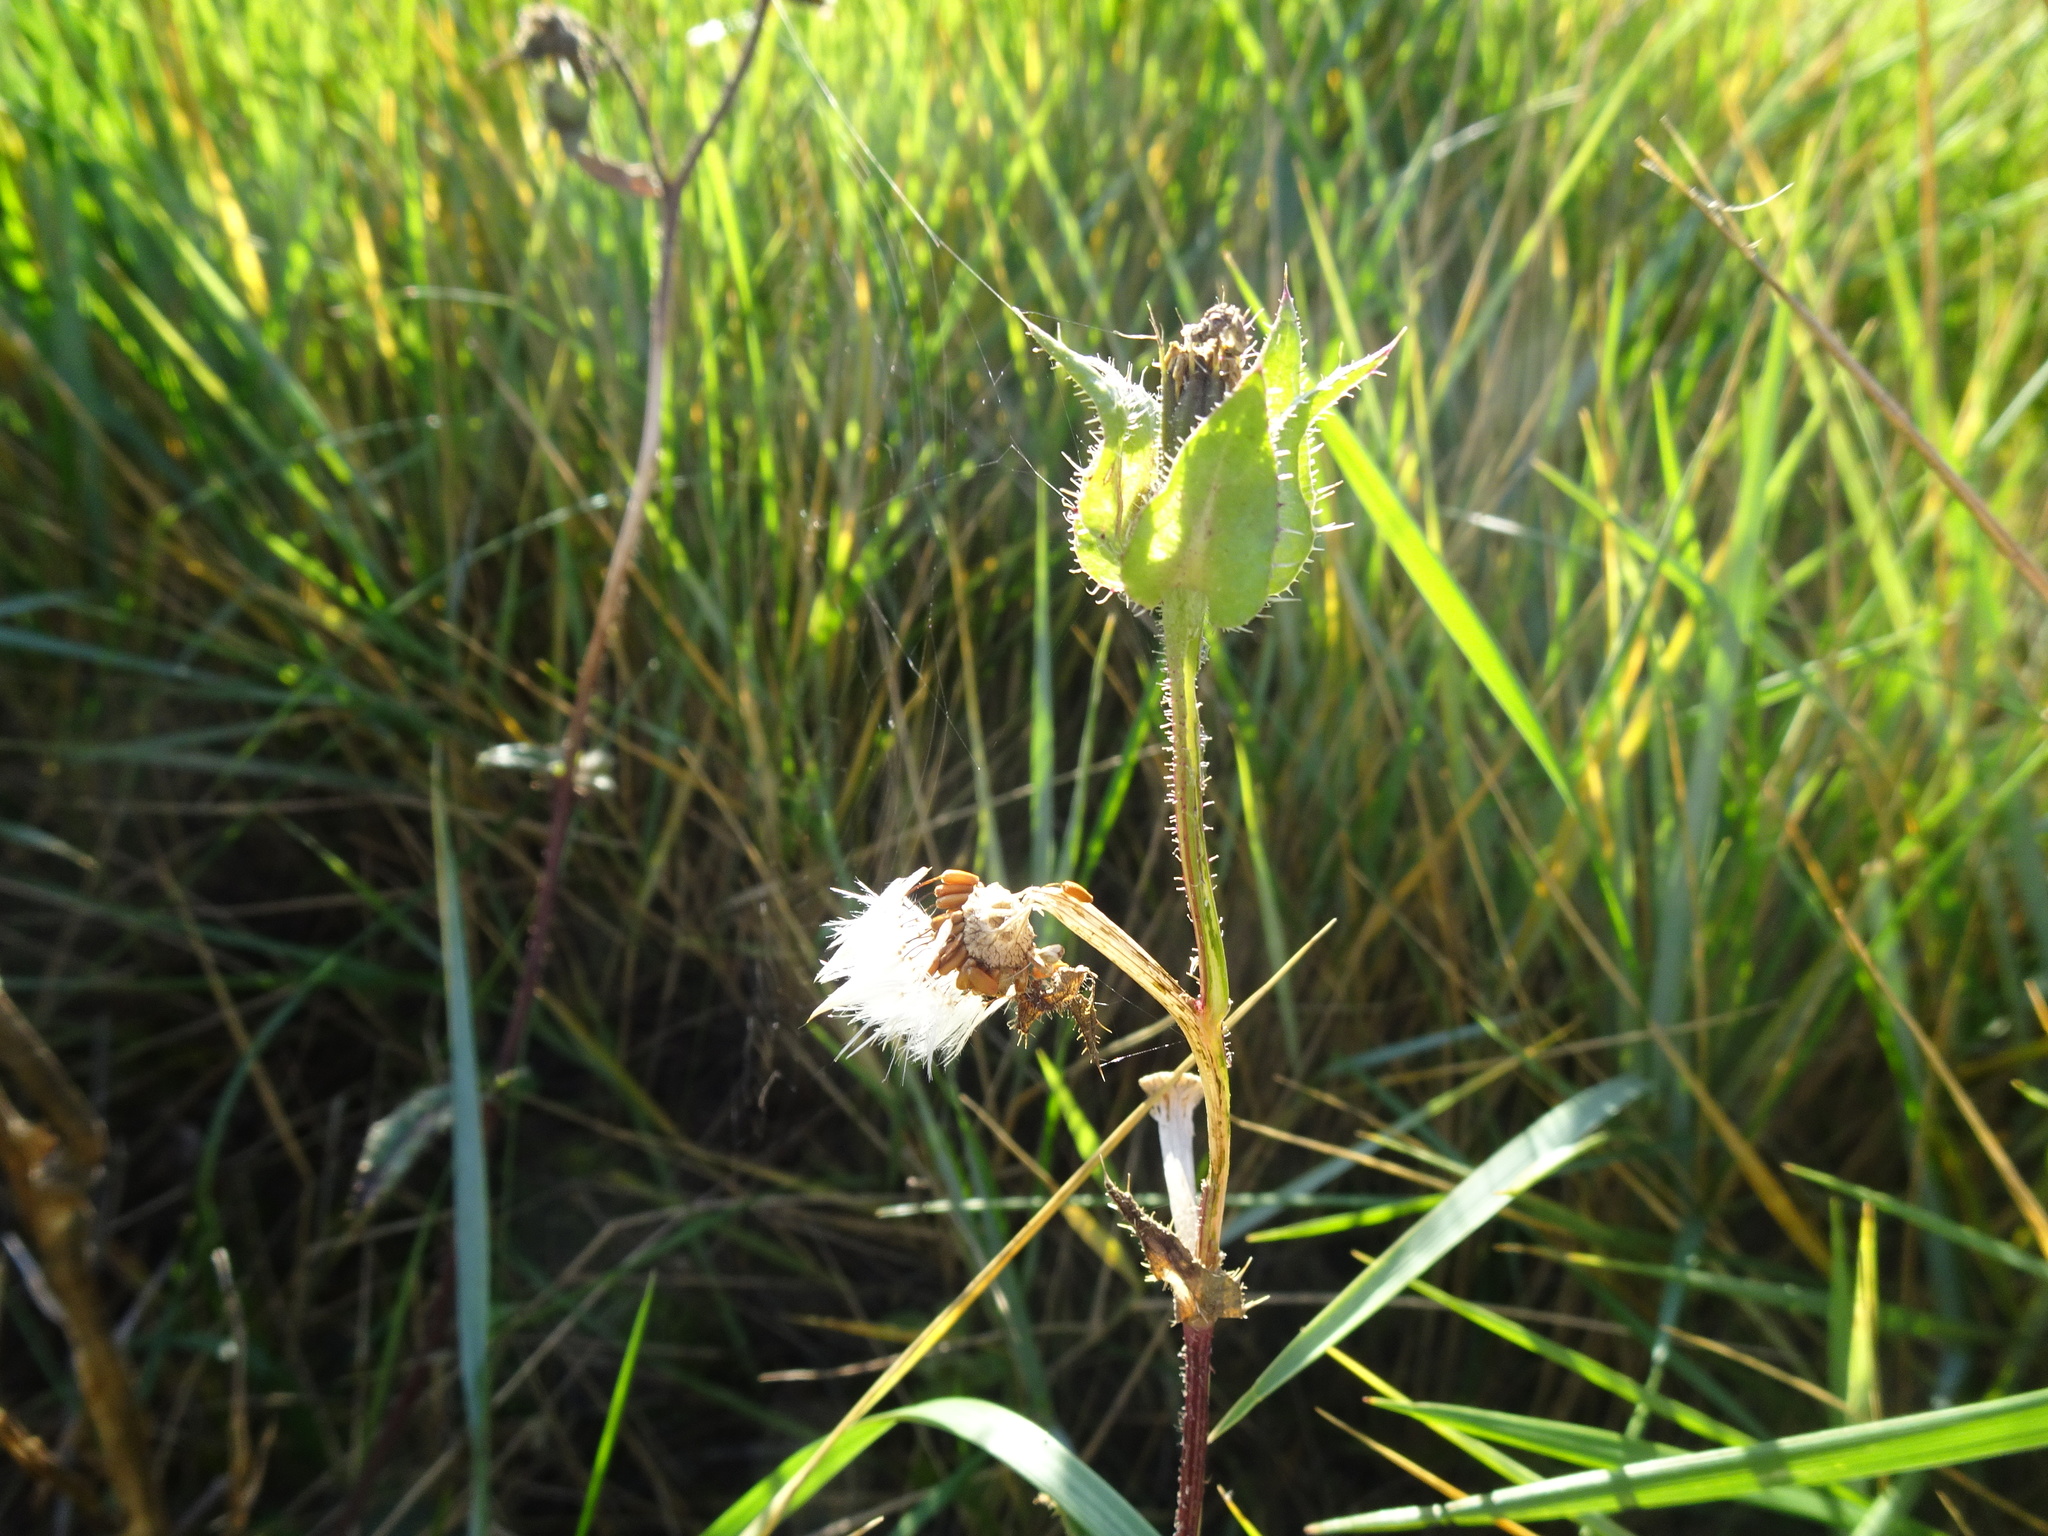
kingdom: Plantae
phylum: Tracheophyta
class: Magnoliopsida
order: Asterales
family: Asteraceae
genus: Helminthotheca
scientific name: Helminthotheca echioides
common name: Ox-tongue
